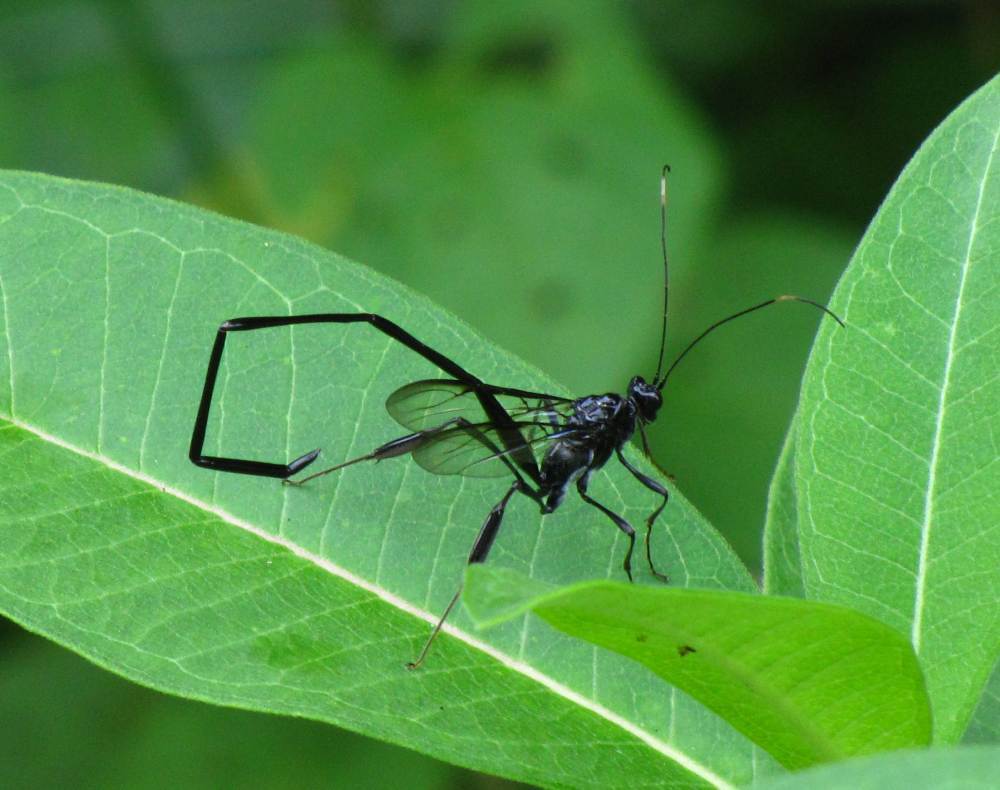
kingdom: Animalia
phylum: Arthropoda
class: Insecta
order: Hymenoptera
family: Pelecinidae
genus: Pelecinus
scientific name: Pelecinus polyturator
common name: American pelecinid wasp
